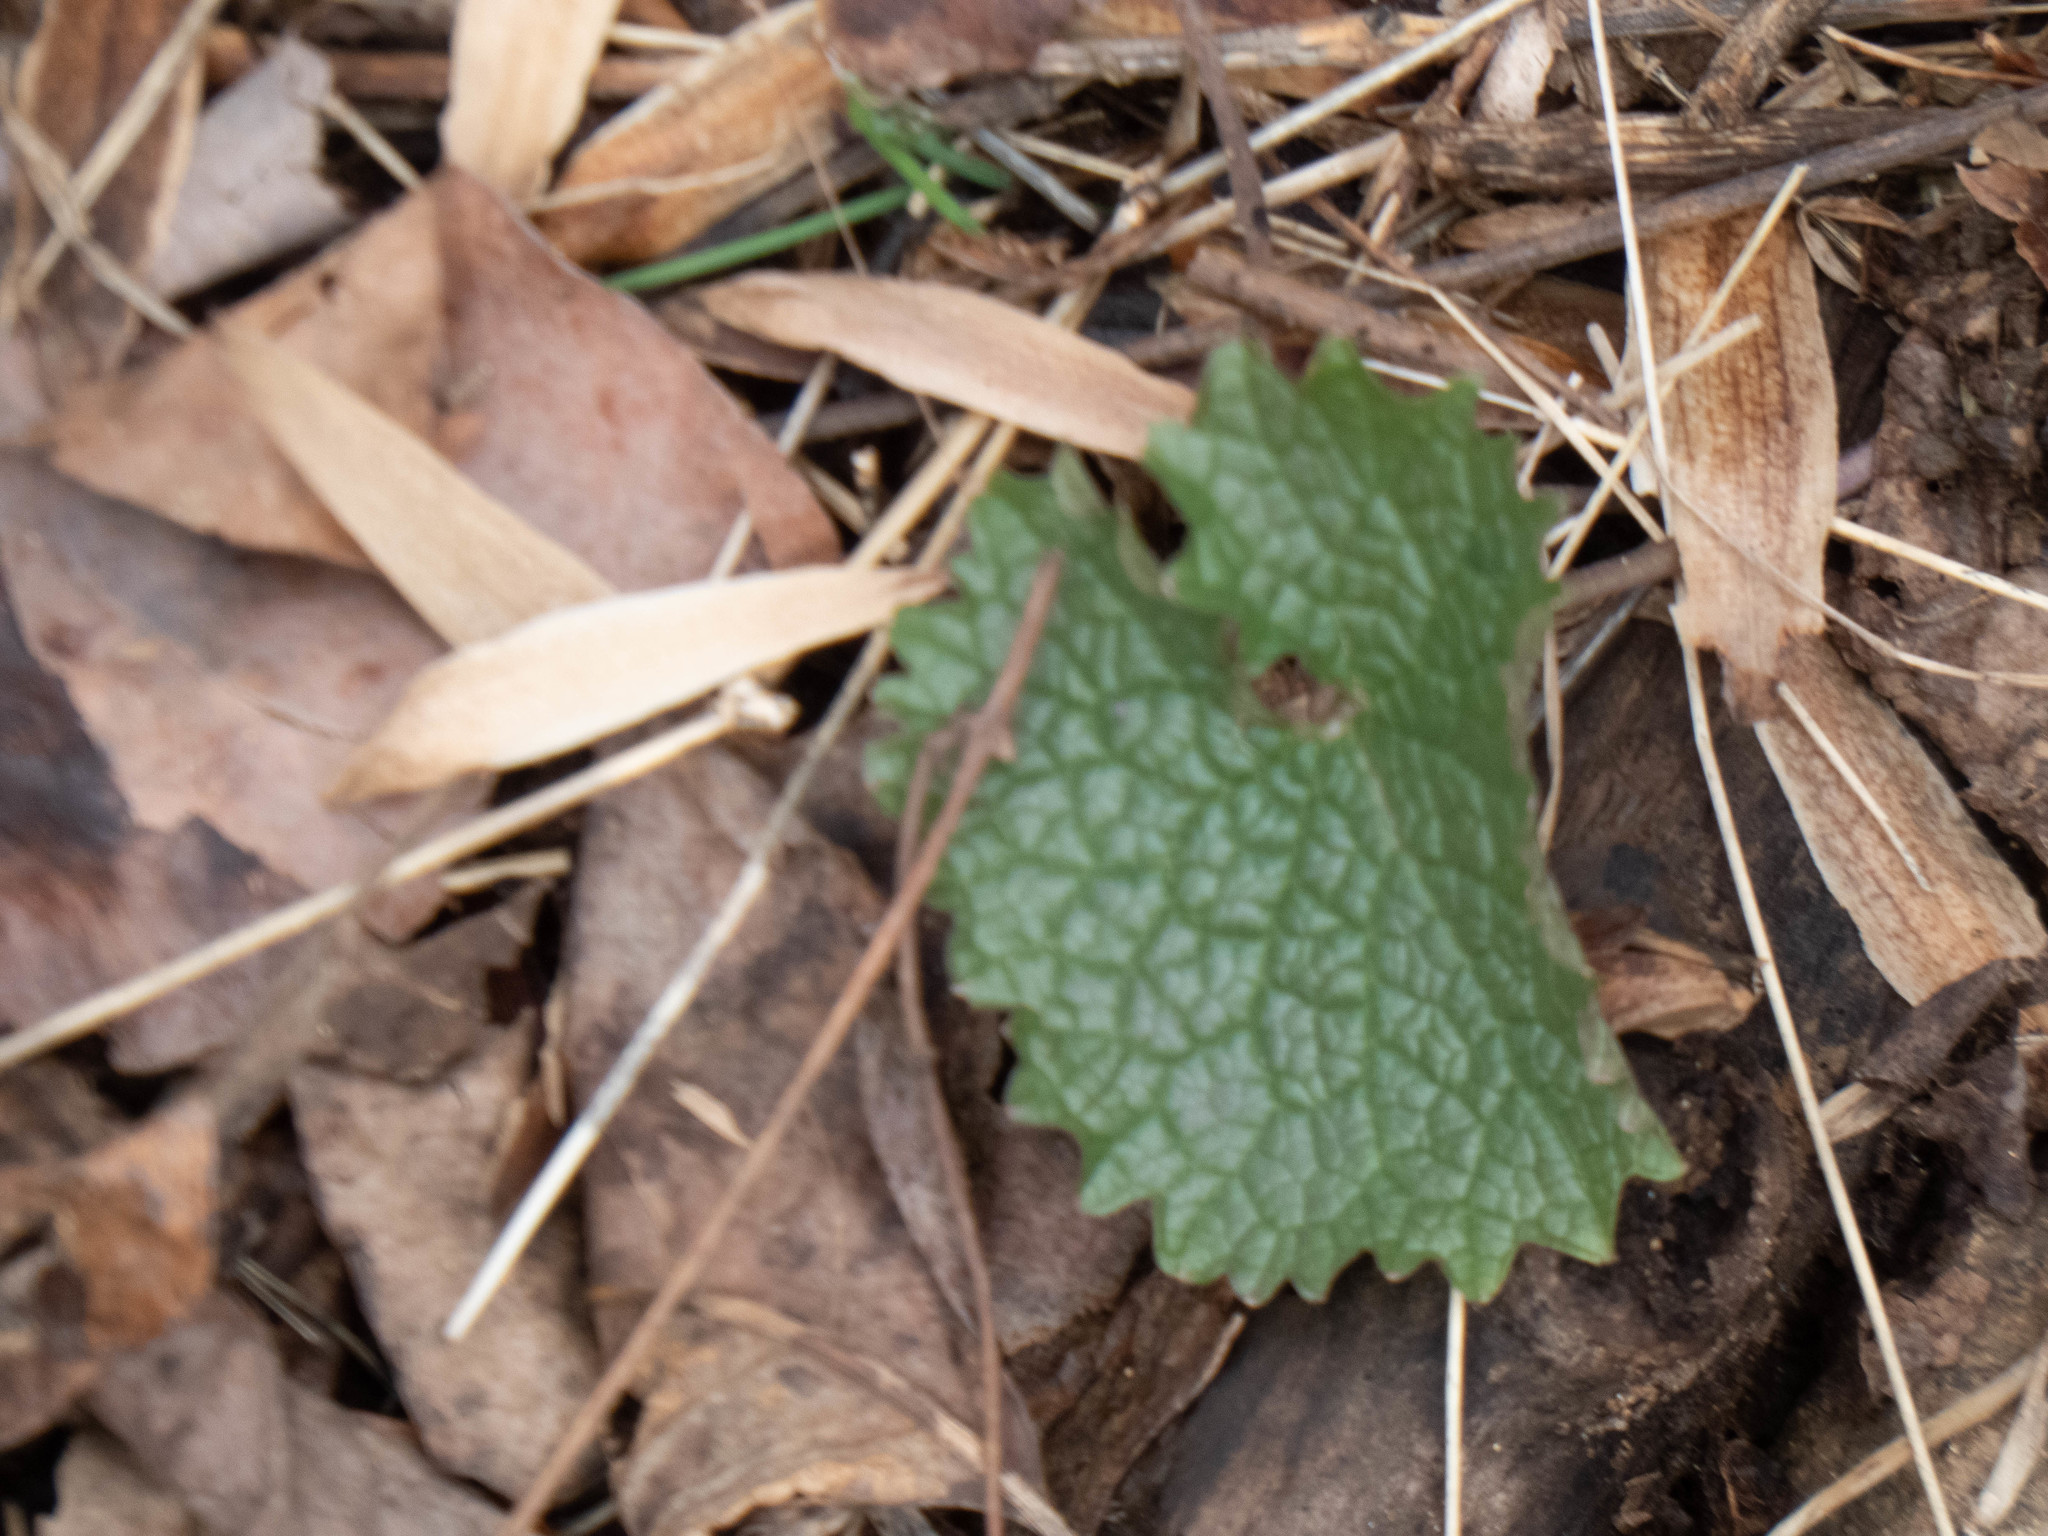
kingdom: Plantae
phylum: Tracheophyta
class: Magnoliopsida
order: Brassicales
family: Brassicaceae
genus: Alliaria
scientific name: Alliaria petiolata
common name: Garlic mustard
